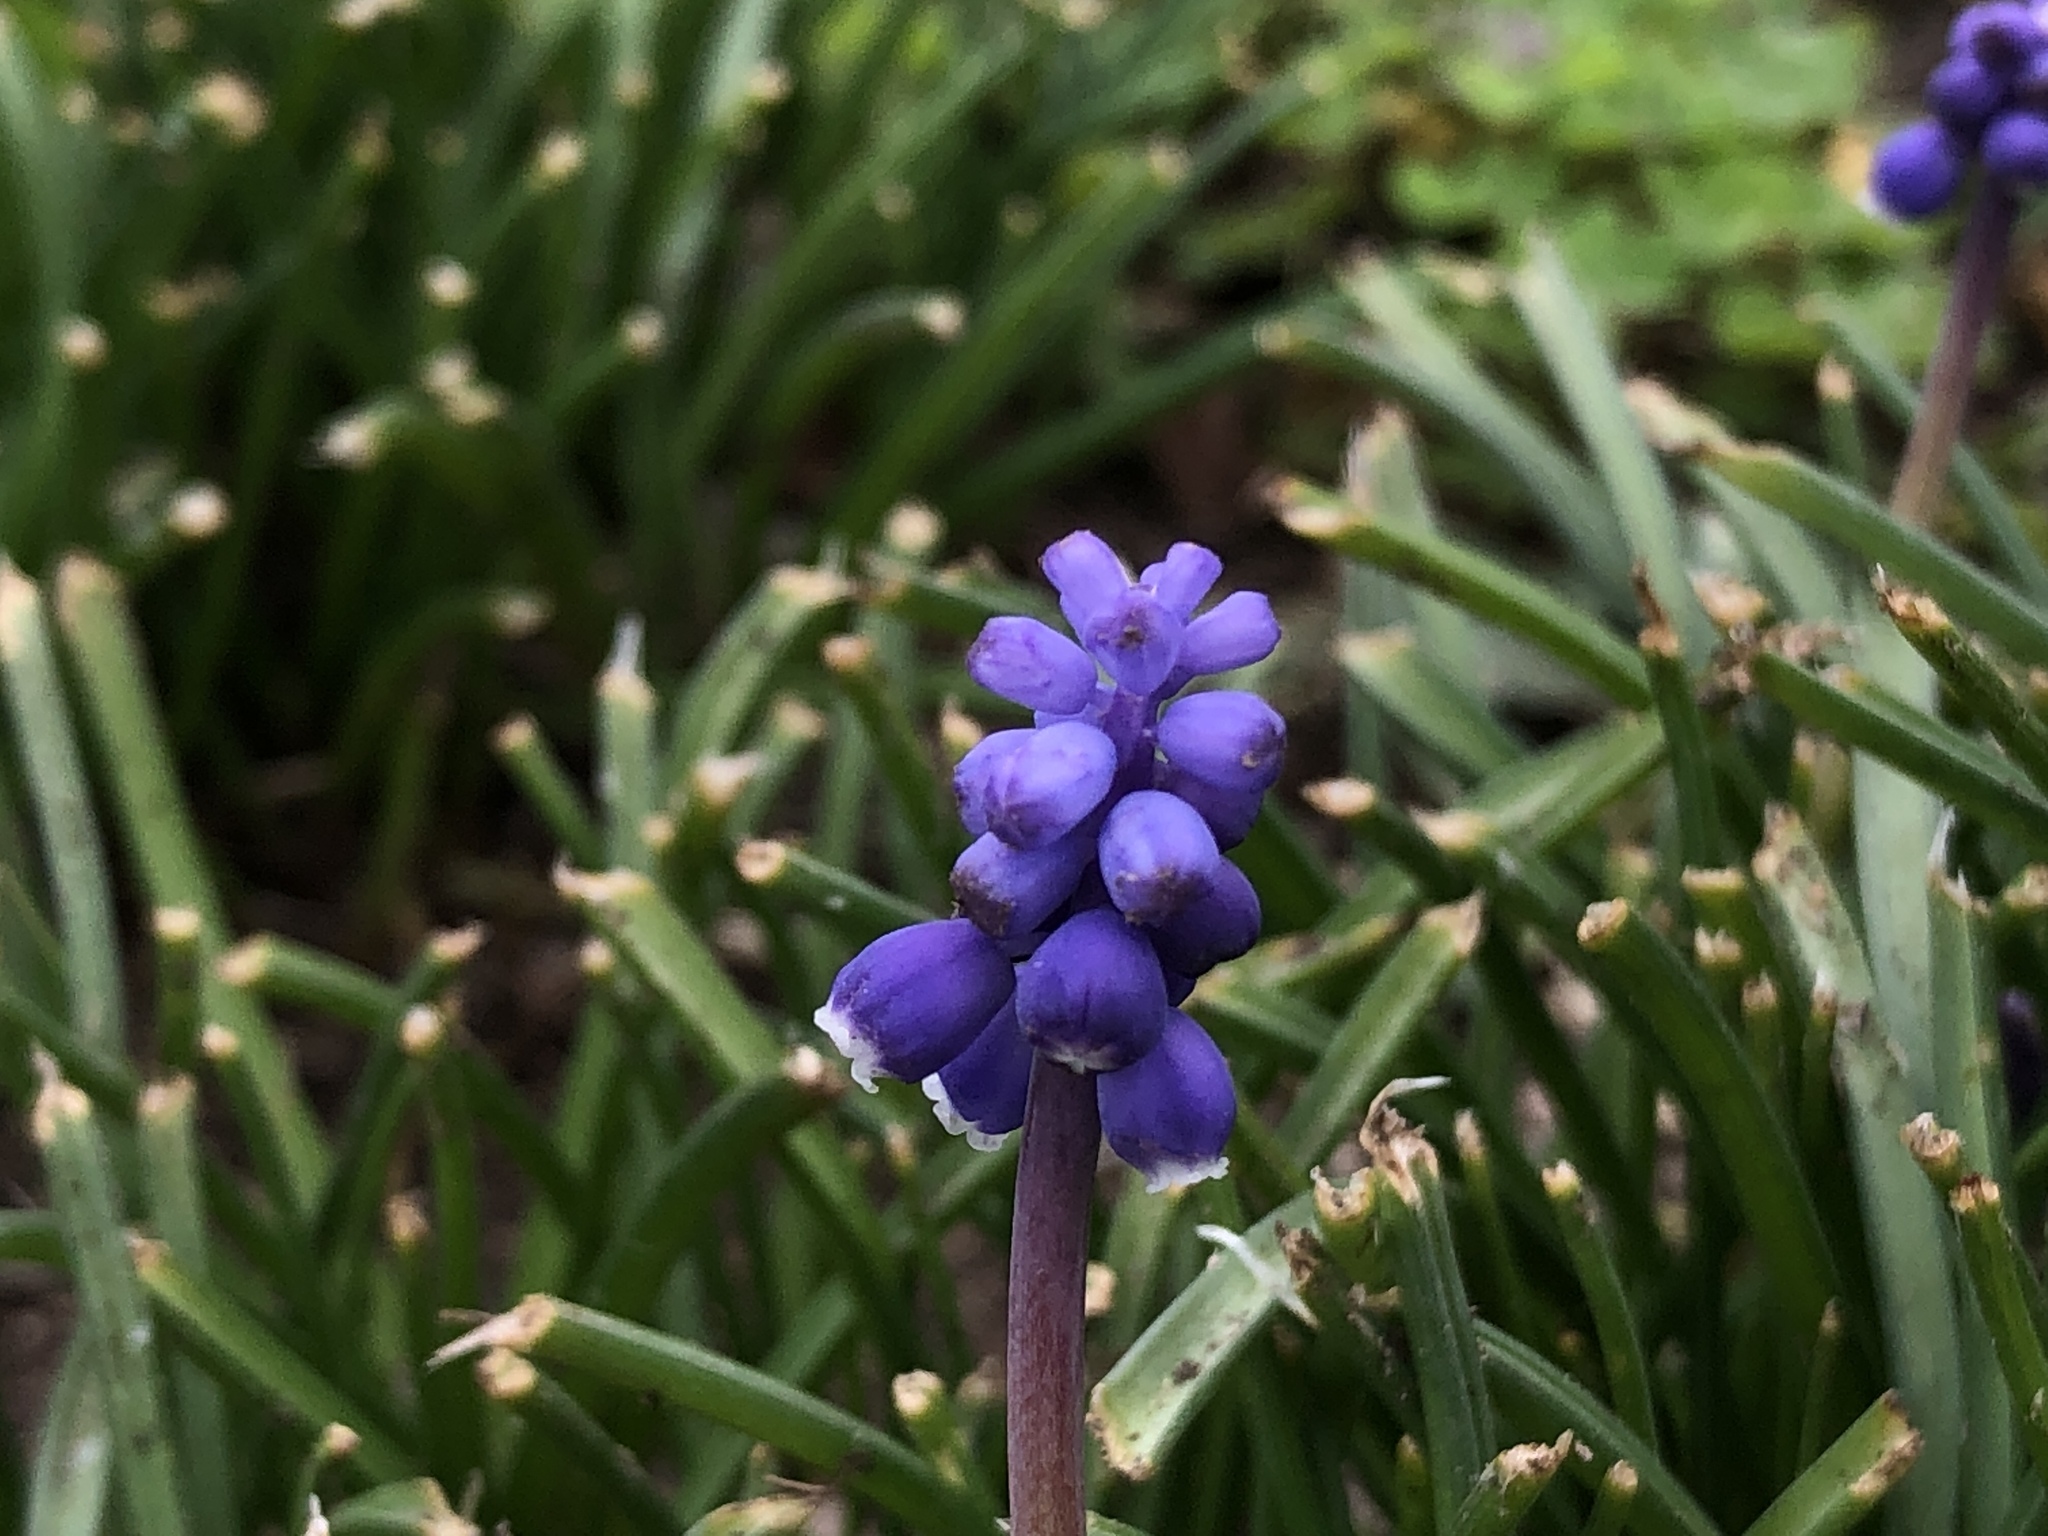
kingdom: Plantae
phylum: Tracheophyta
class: Liliopsida
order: Asparagales
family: Asparagaceae
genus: Muscari
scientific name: Muscari neglectum
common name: Grape-hyacinth
